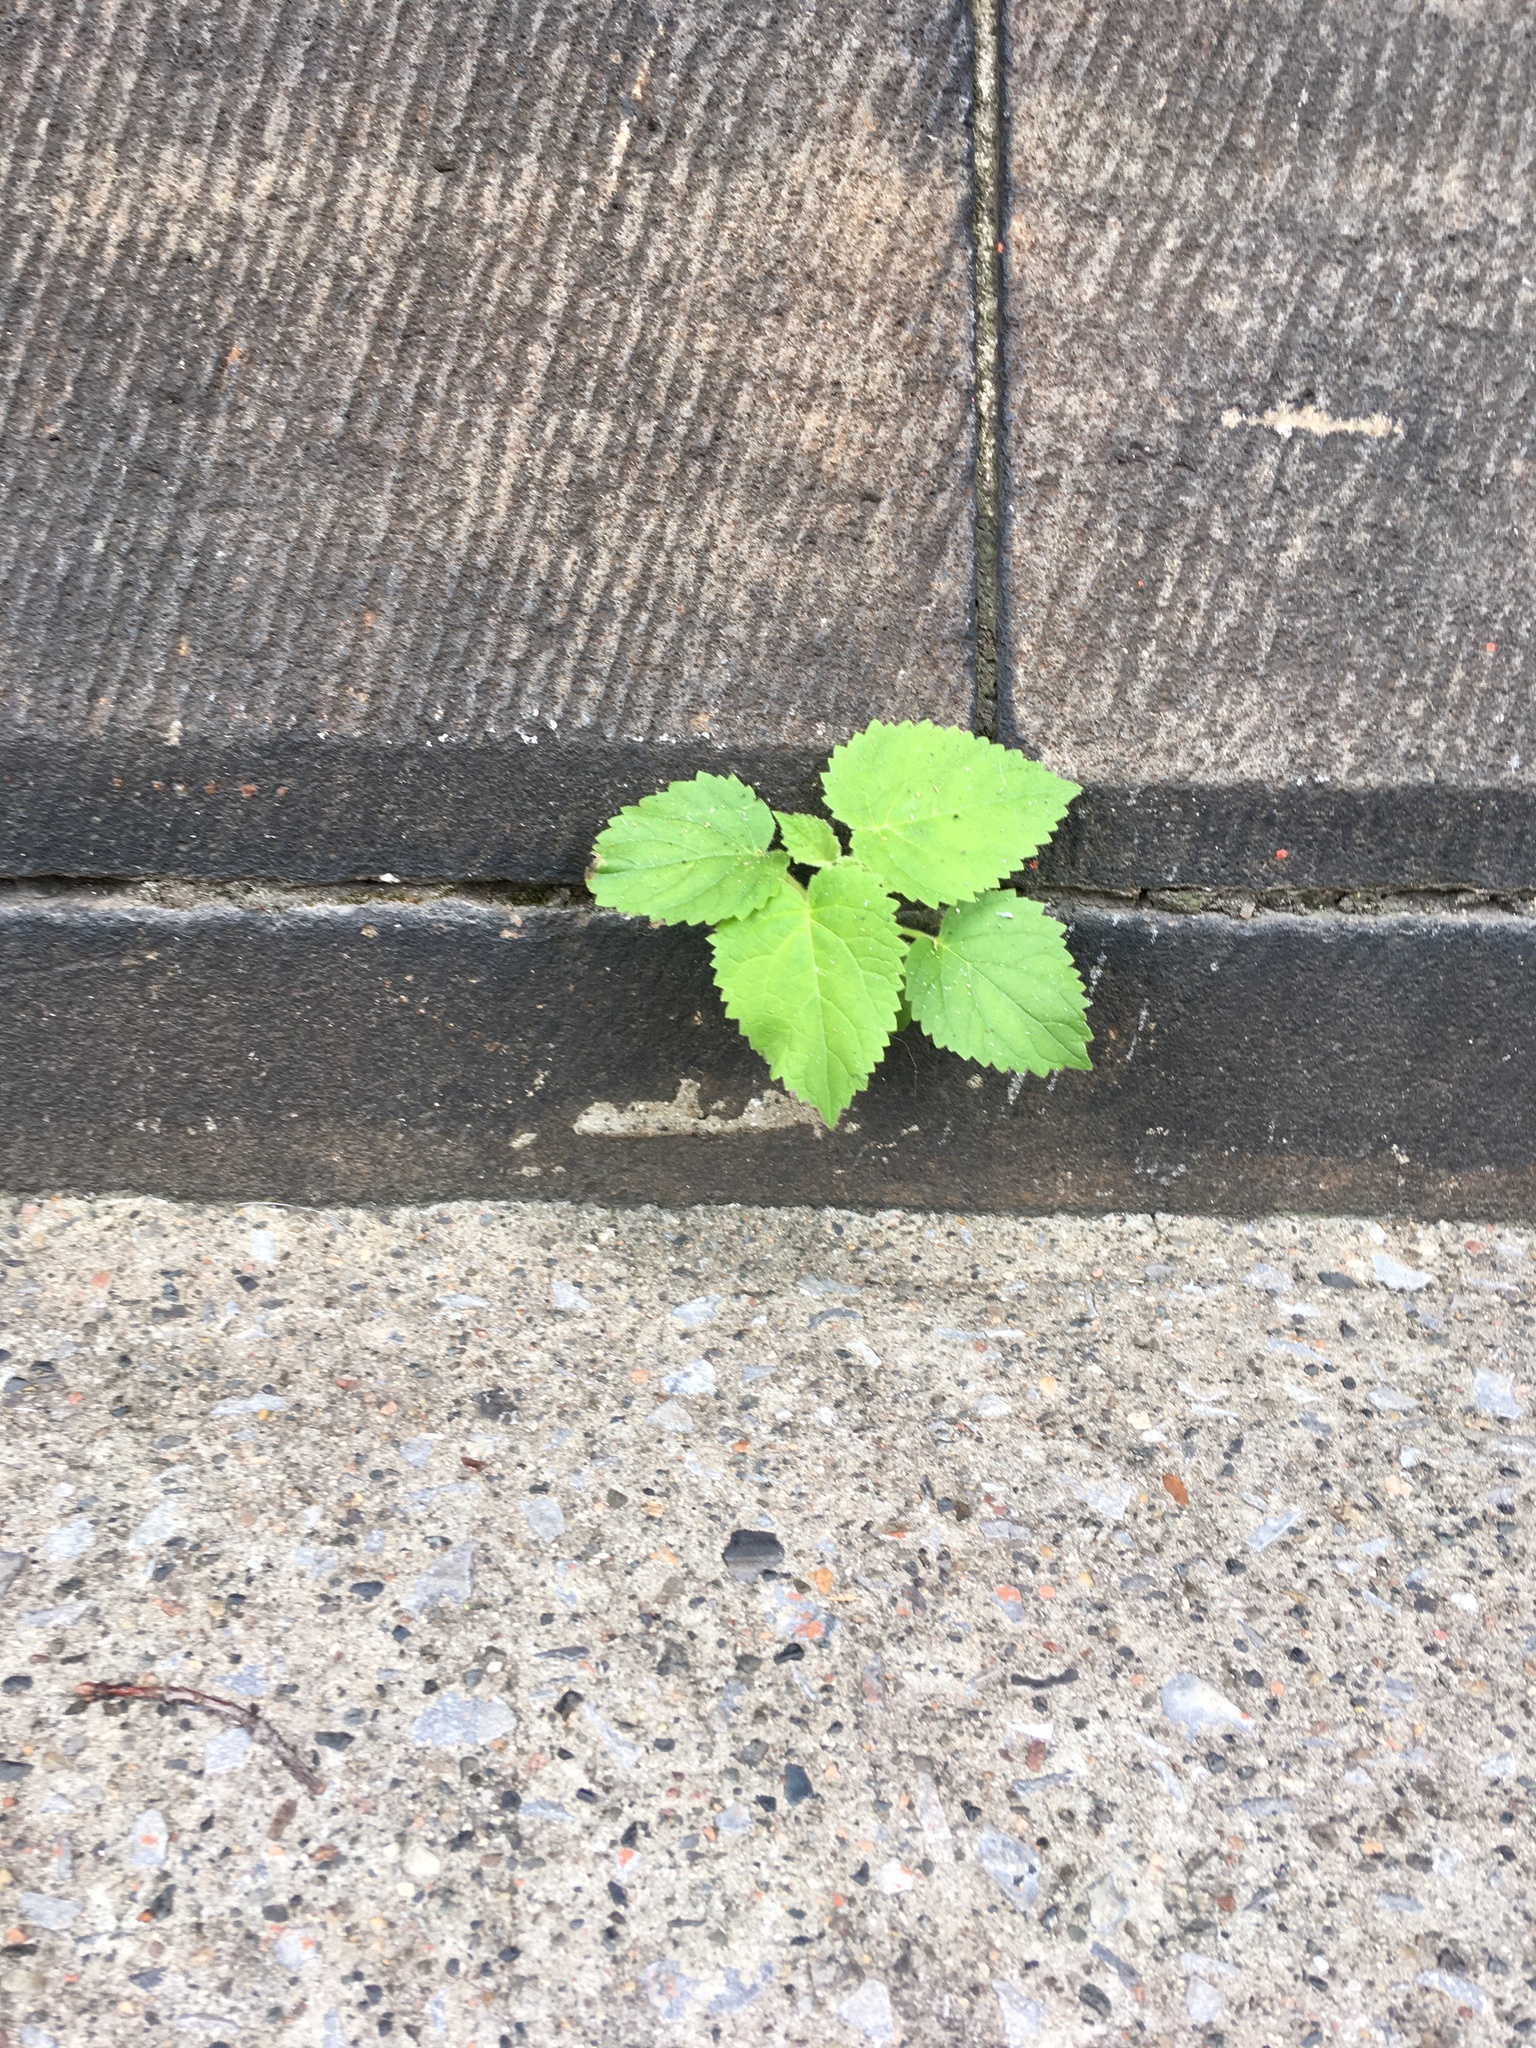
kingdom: Plantae
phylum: Tracheophyta
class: Magnoliopsida
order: Lamiales
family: Paulowniaceae
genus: Paulownia
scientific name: Paulownia tomentosa
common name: Foxglove-tree
